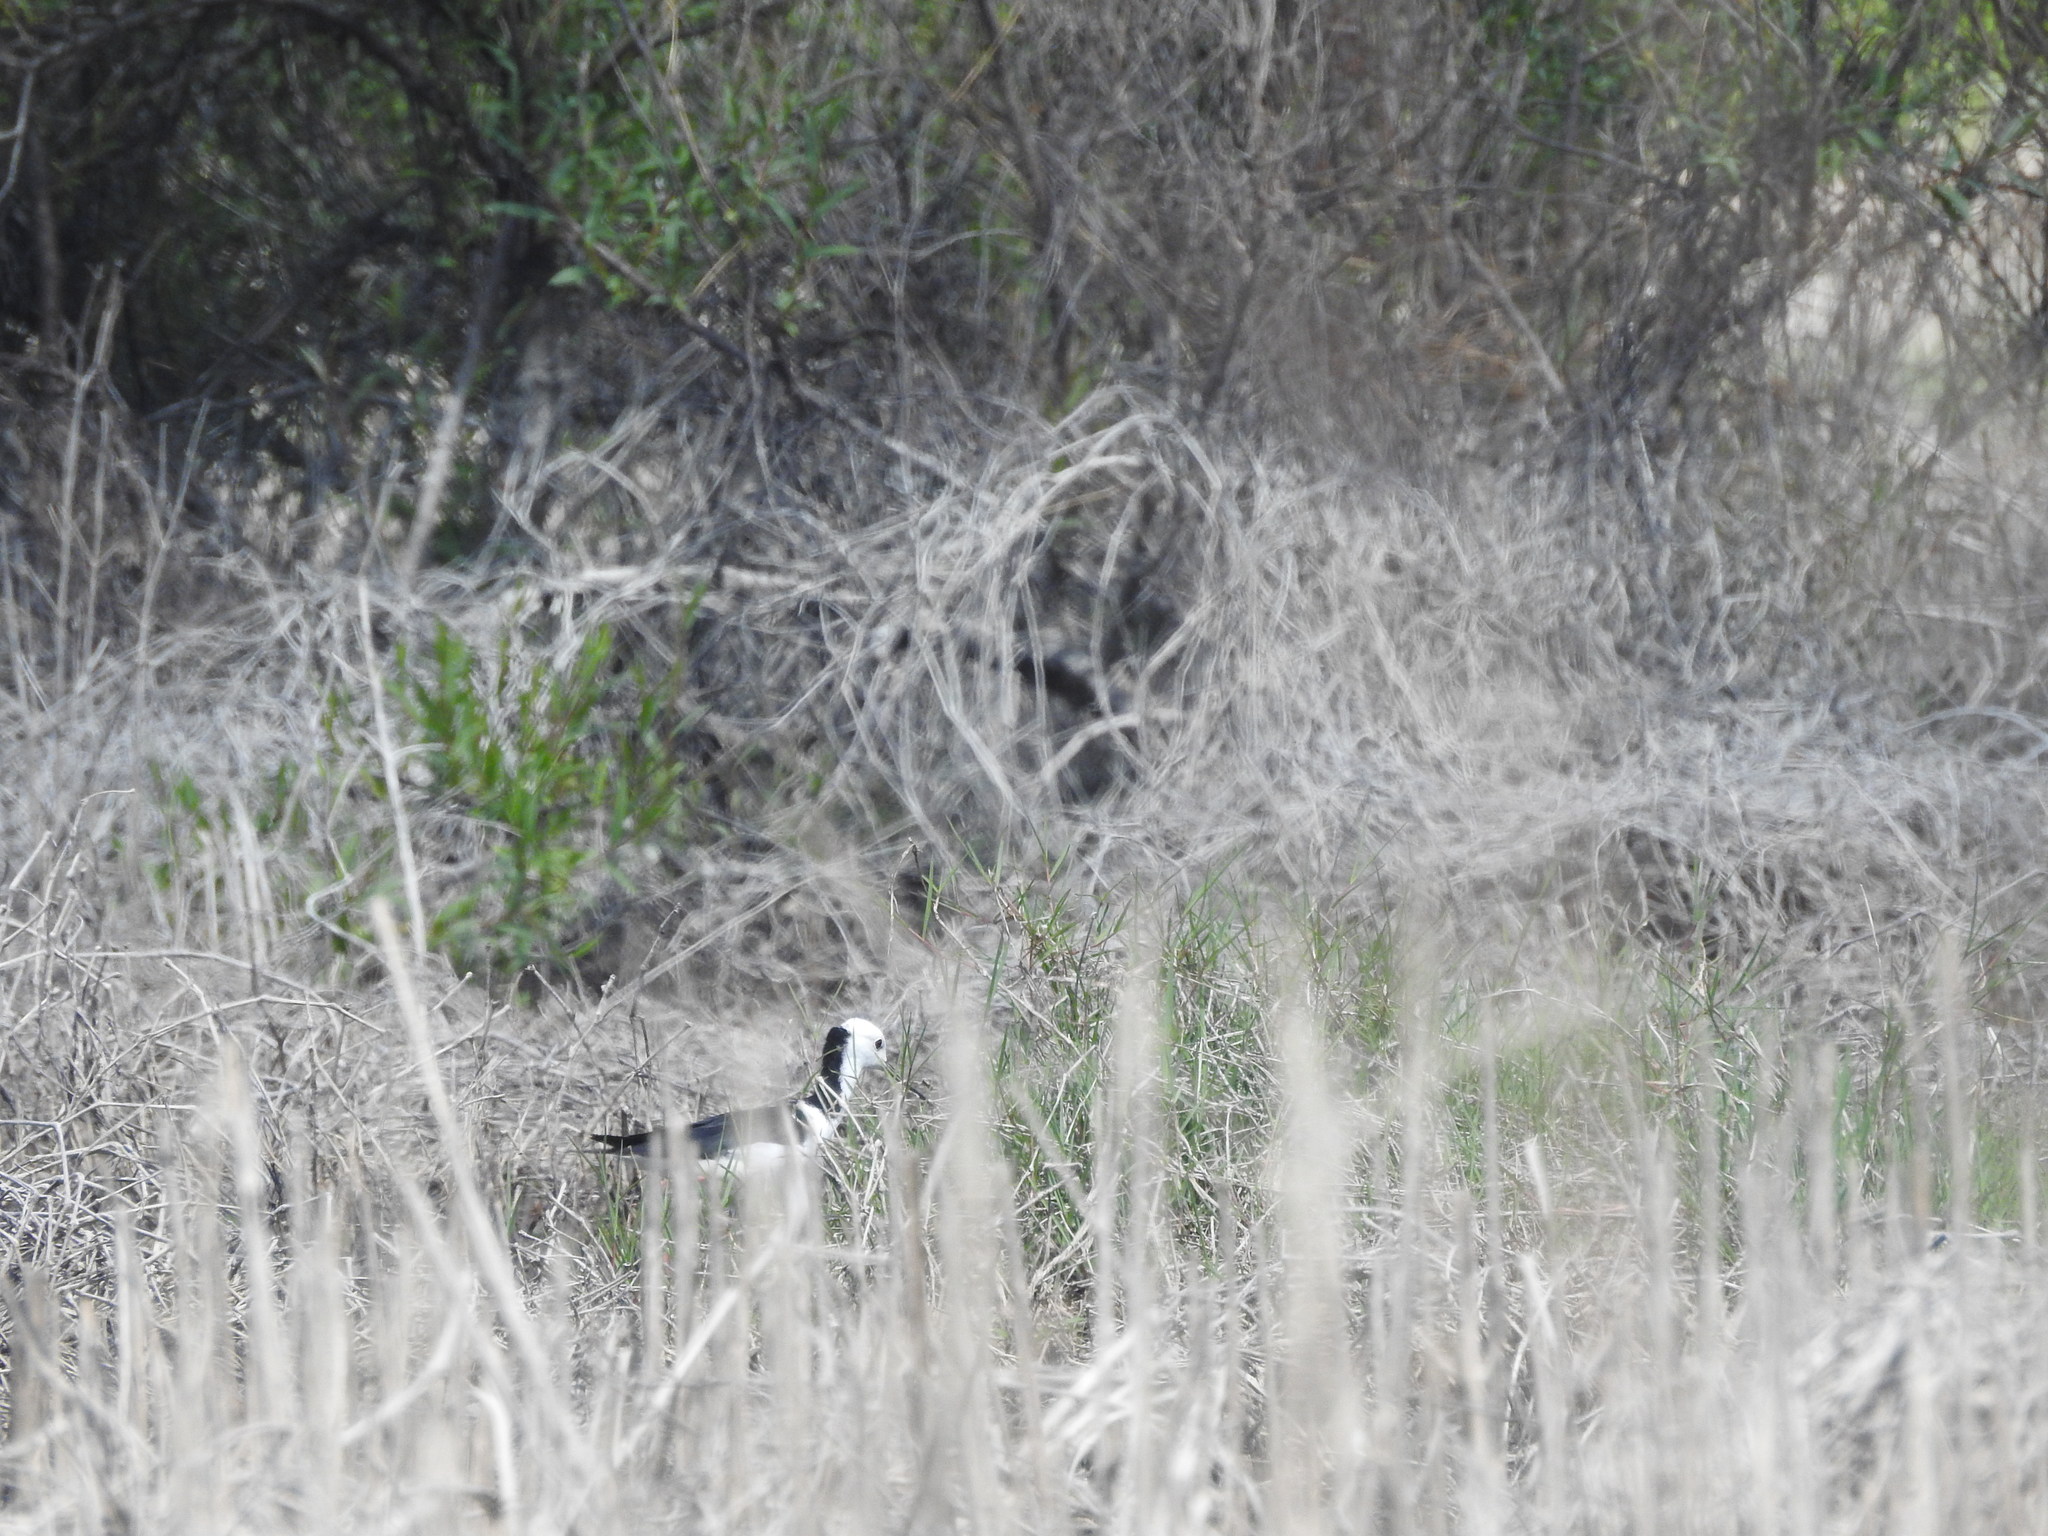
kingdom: Animalia
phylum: Chordata
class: Aves
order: Charadriiformes
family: Recurvirostridae
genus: Himantopus
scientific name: Himantopus leucocephalus
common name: White-headed stilt
